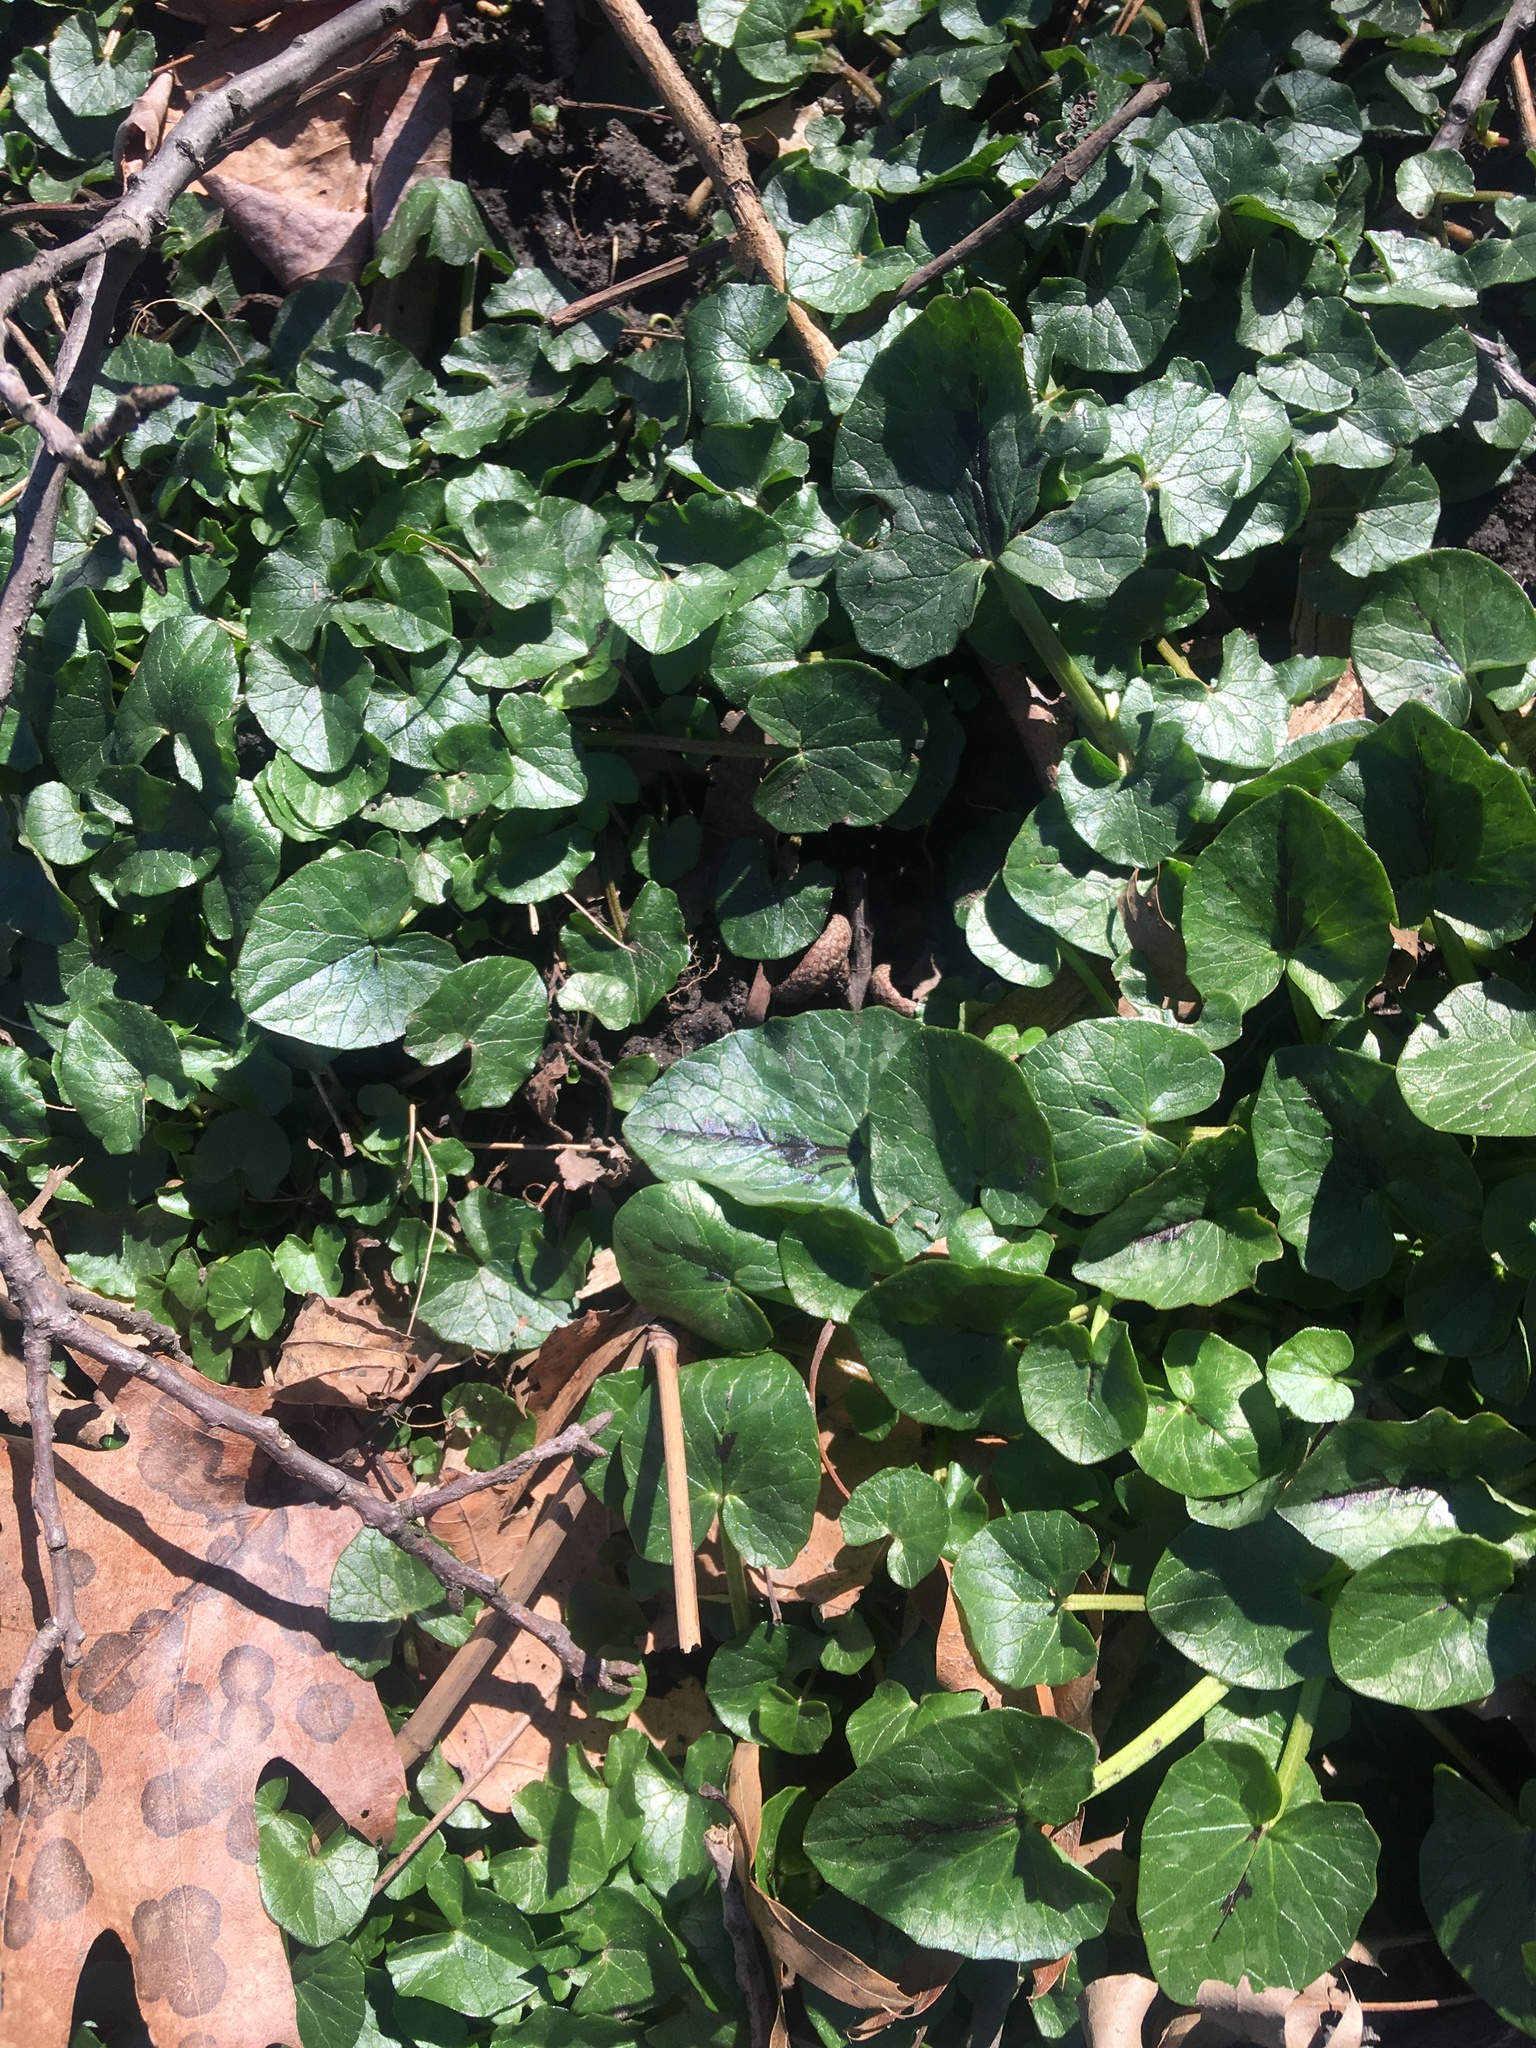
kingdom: Plantae
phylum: Tracheophyta
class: Magnoliopsida
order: Ranunculales
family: Ranunculaceae
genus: Ficaria
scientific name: Ficaria verna
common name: Lesser celandine
